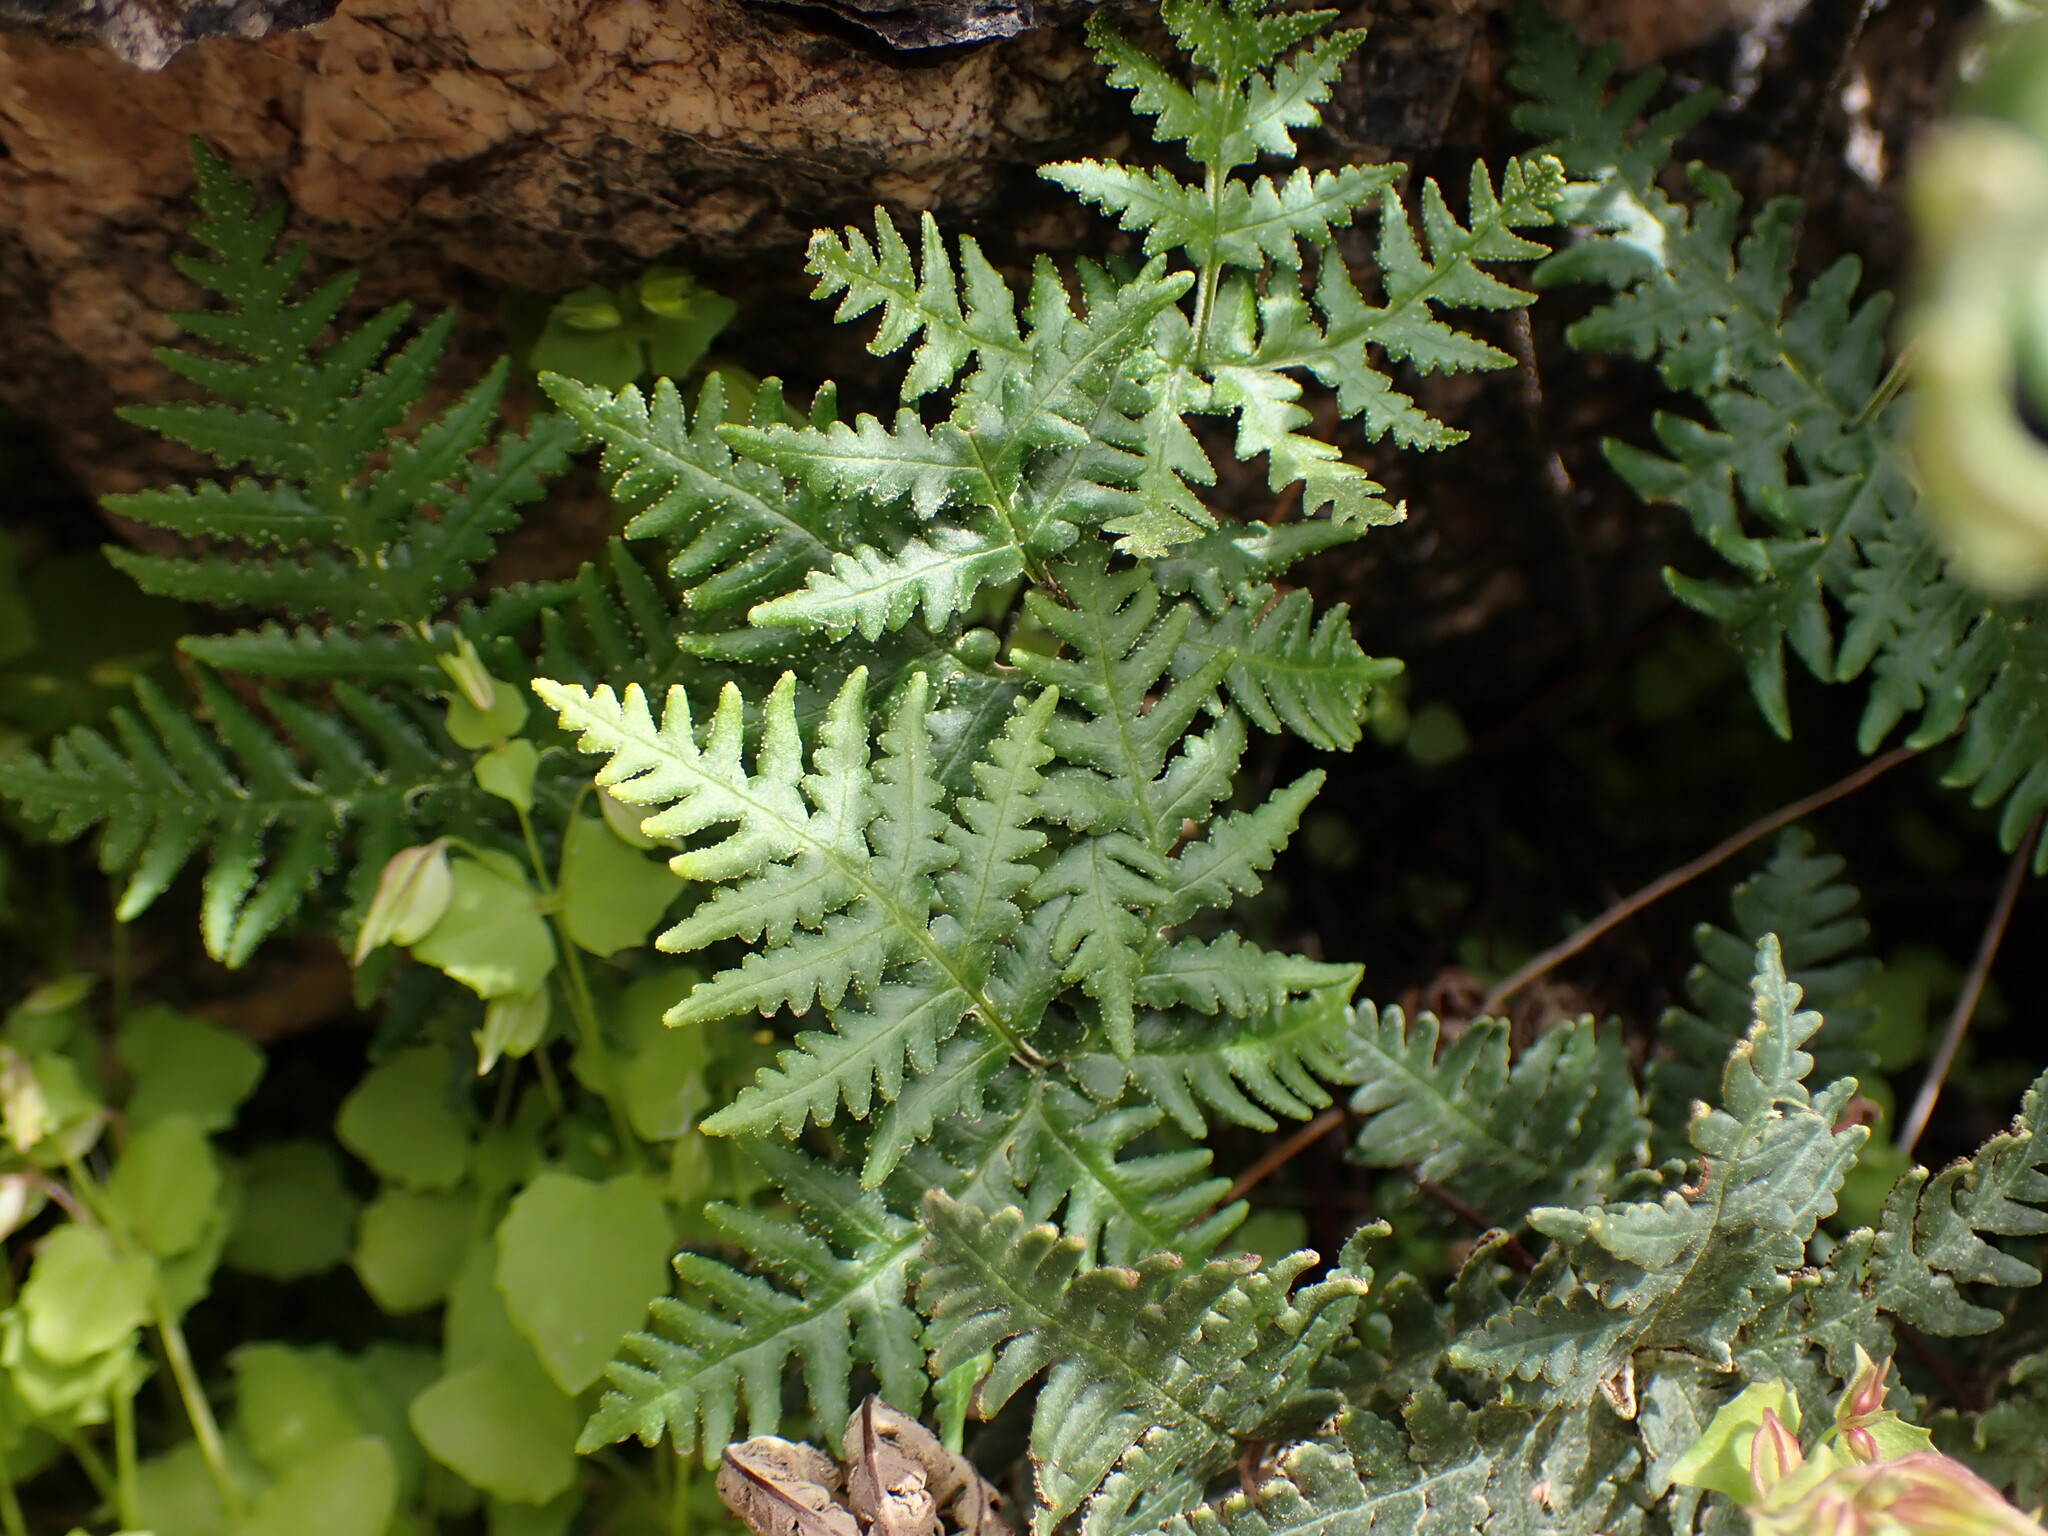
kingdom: Plantae
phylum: Tracheophyta
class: Polypodiopsida
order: Polypodiales
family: Pteridaceae
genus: Notholaena
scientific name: Notholaena standleyi
